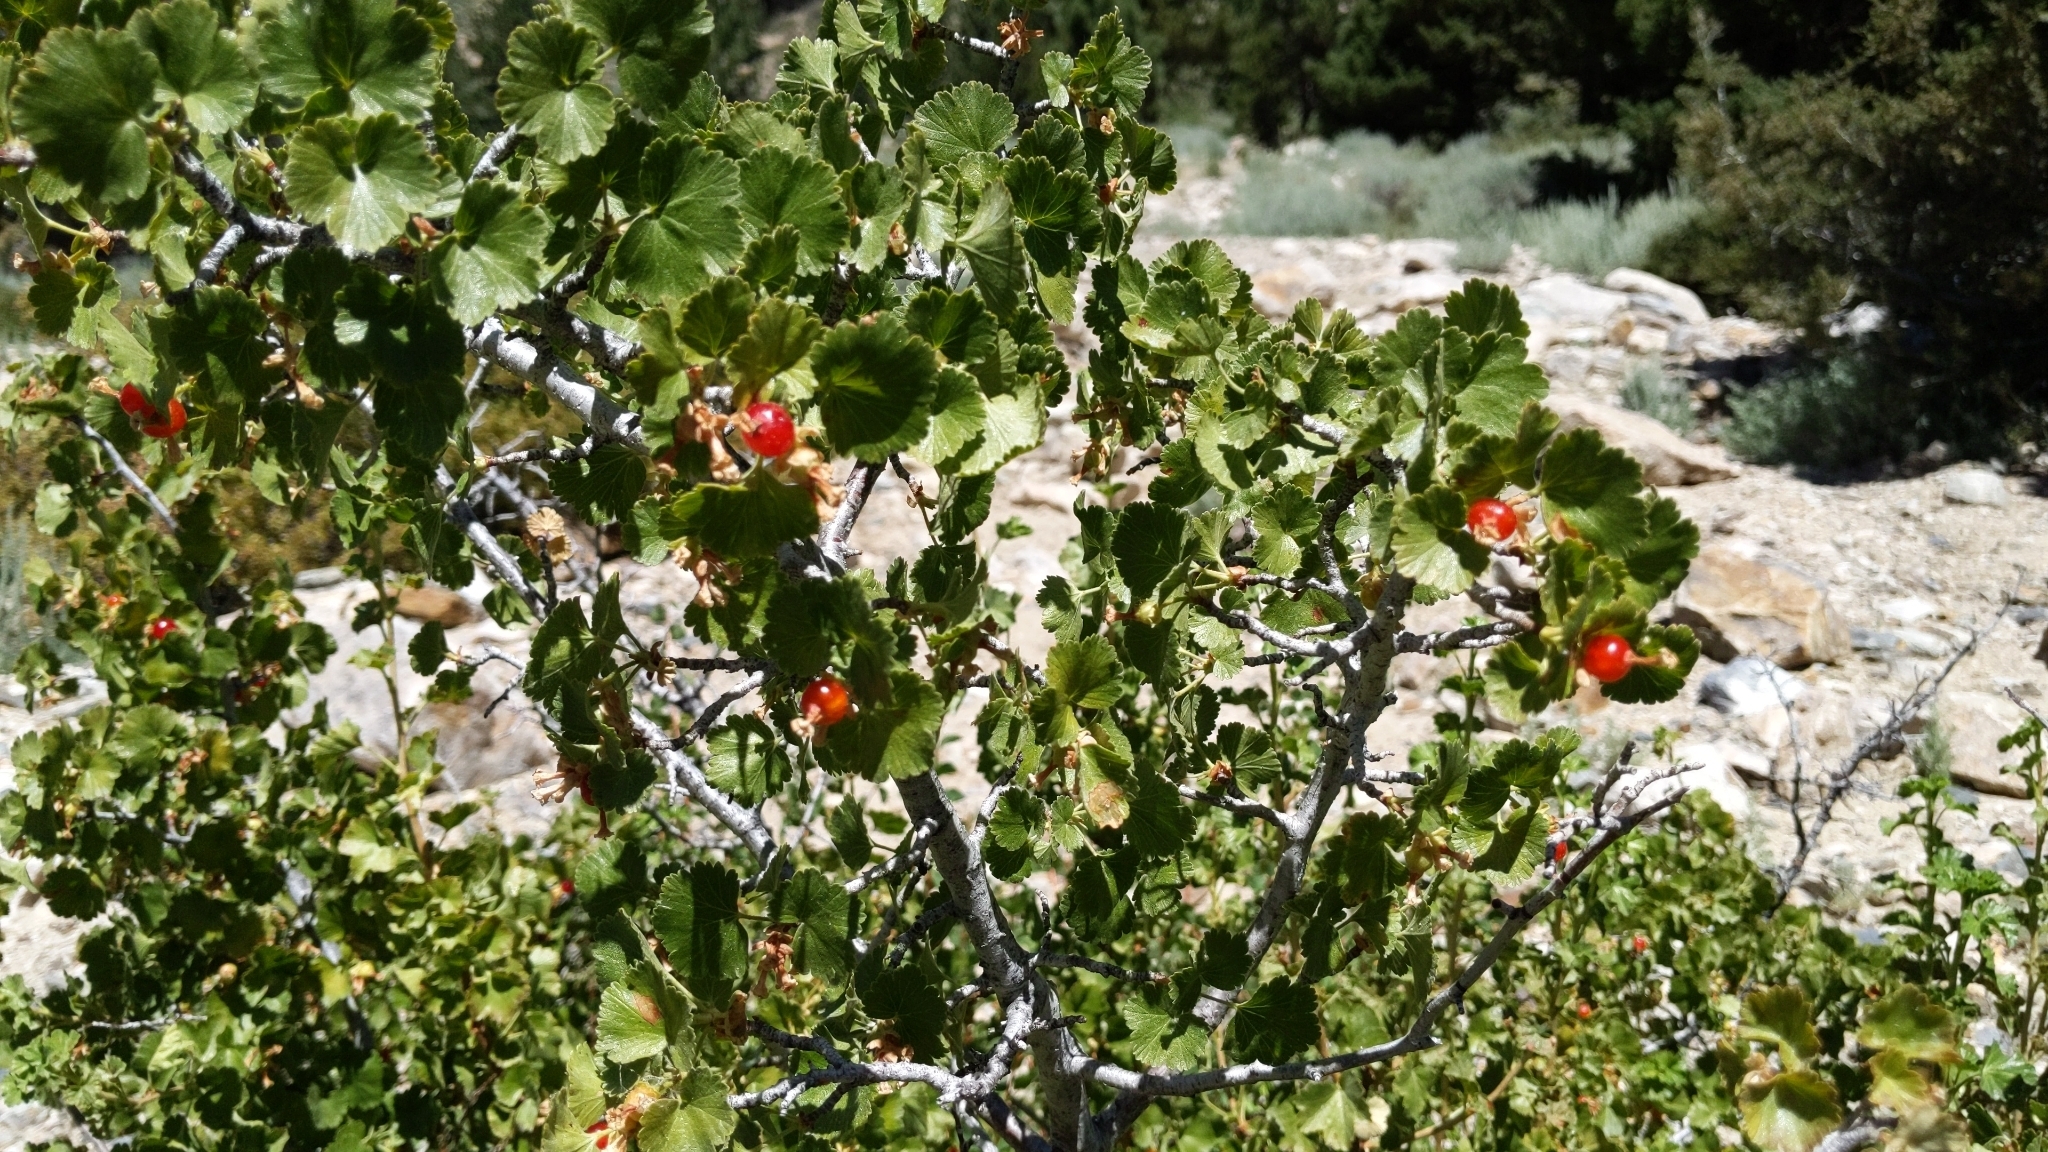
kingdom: Plantae
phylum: Tracheophyta
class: Magnoliopsida
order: Saxifragales
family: Grossulariaceae
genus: Ribes
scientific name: Ribes cereum
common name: Wax currant
